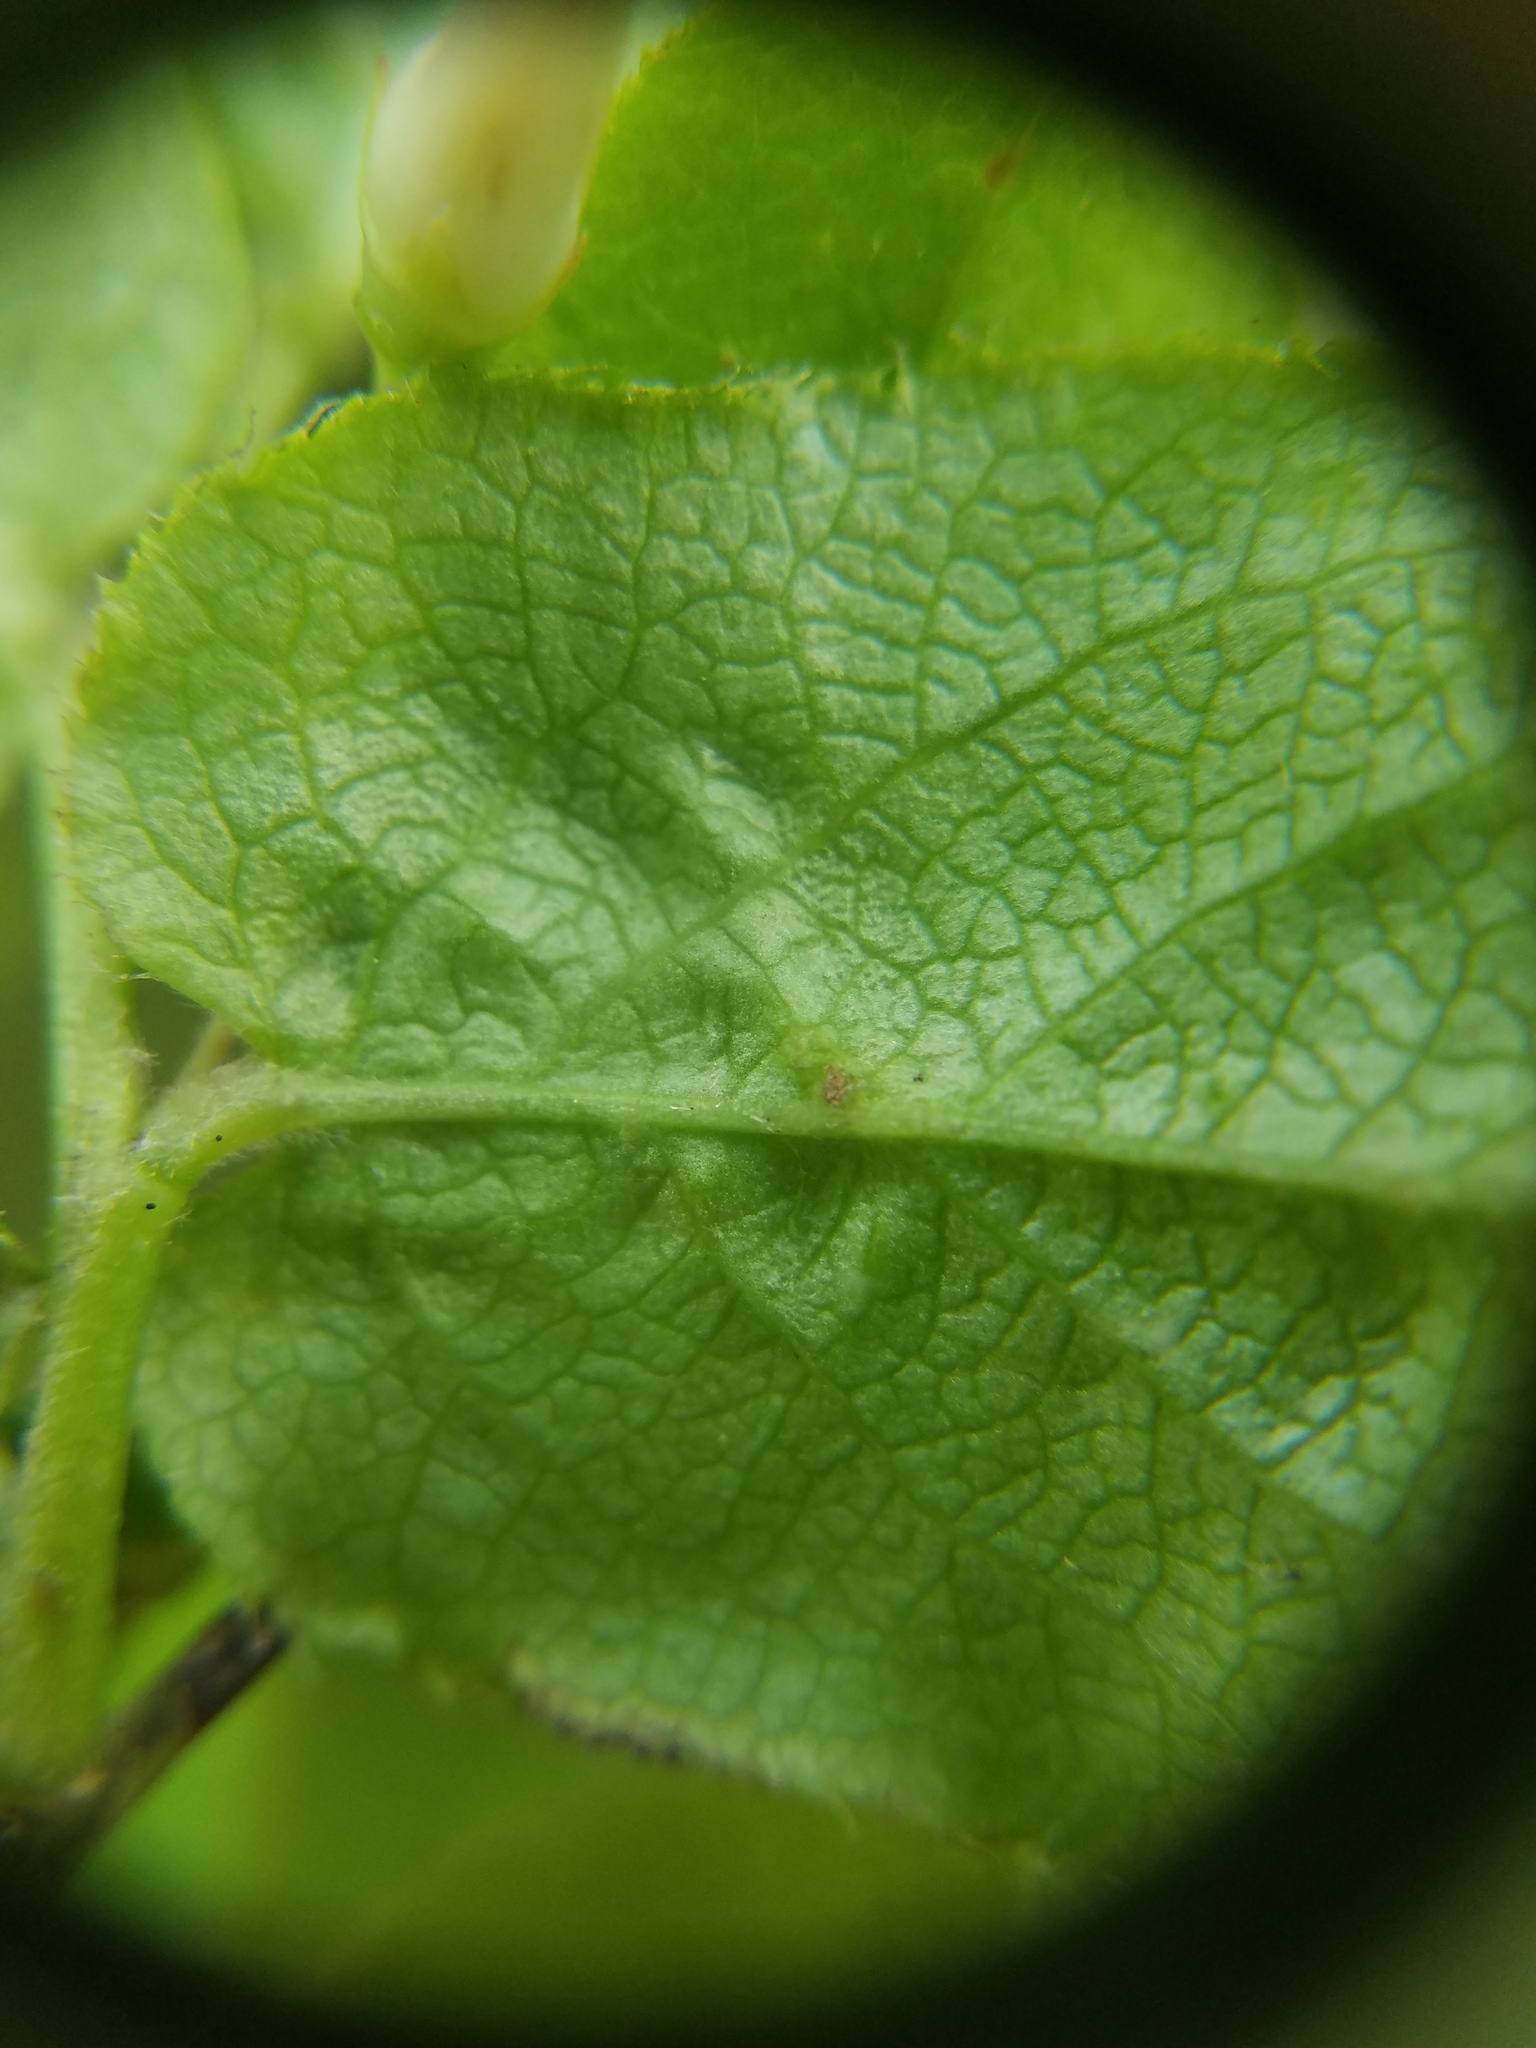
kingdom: Plantae
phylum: Tracheophyta
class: Magnoliopsida
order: Ericales
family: Ericaceae
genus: Vaccinium
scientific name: Vaccinium erythrocarpum
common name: Bearberry
